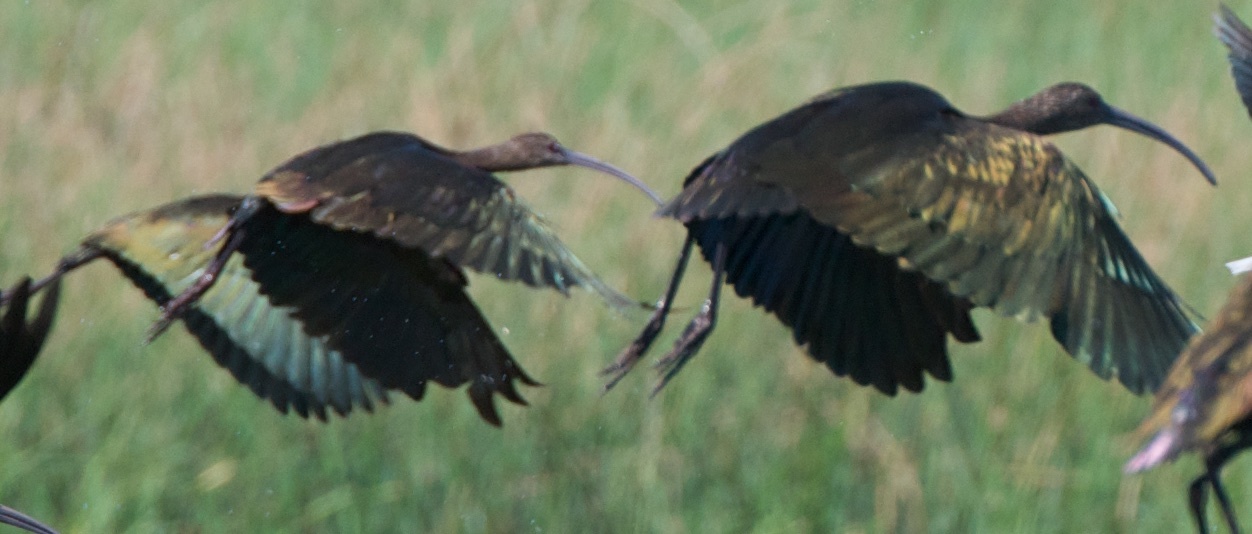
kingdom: Animalia
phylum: Chordata
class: Aves
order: Pelecaniformes
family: Threskiornithidae
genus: Plegadis
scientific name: Plegadis chihi
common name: White-faced ibis
